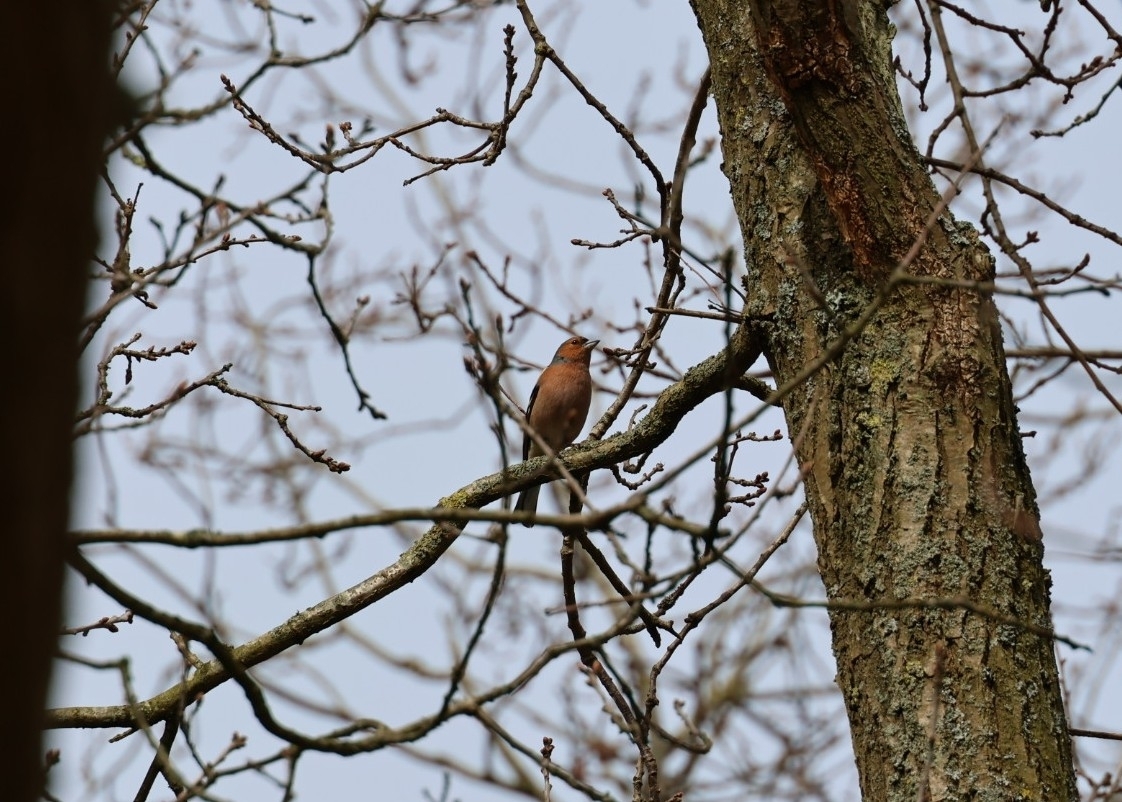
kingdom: Animalia
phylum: Chordata
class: Aves
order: Passeriformes
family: Fringillidae
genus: Fringilla
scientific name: Fringilla coelebs
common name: Common chaffinch
